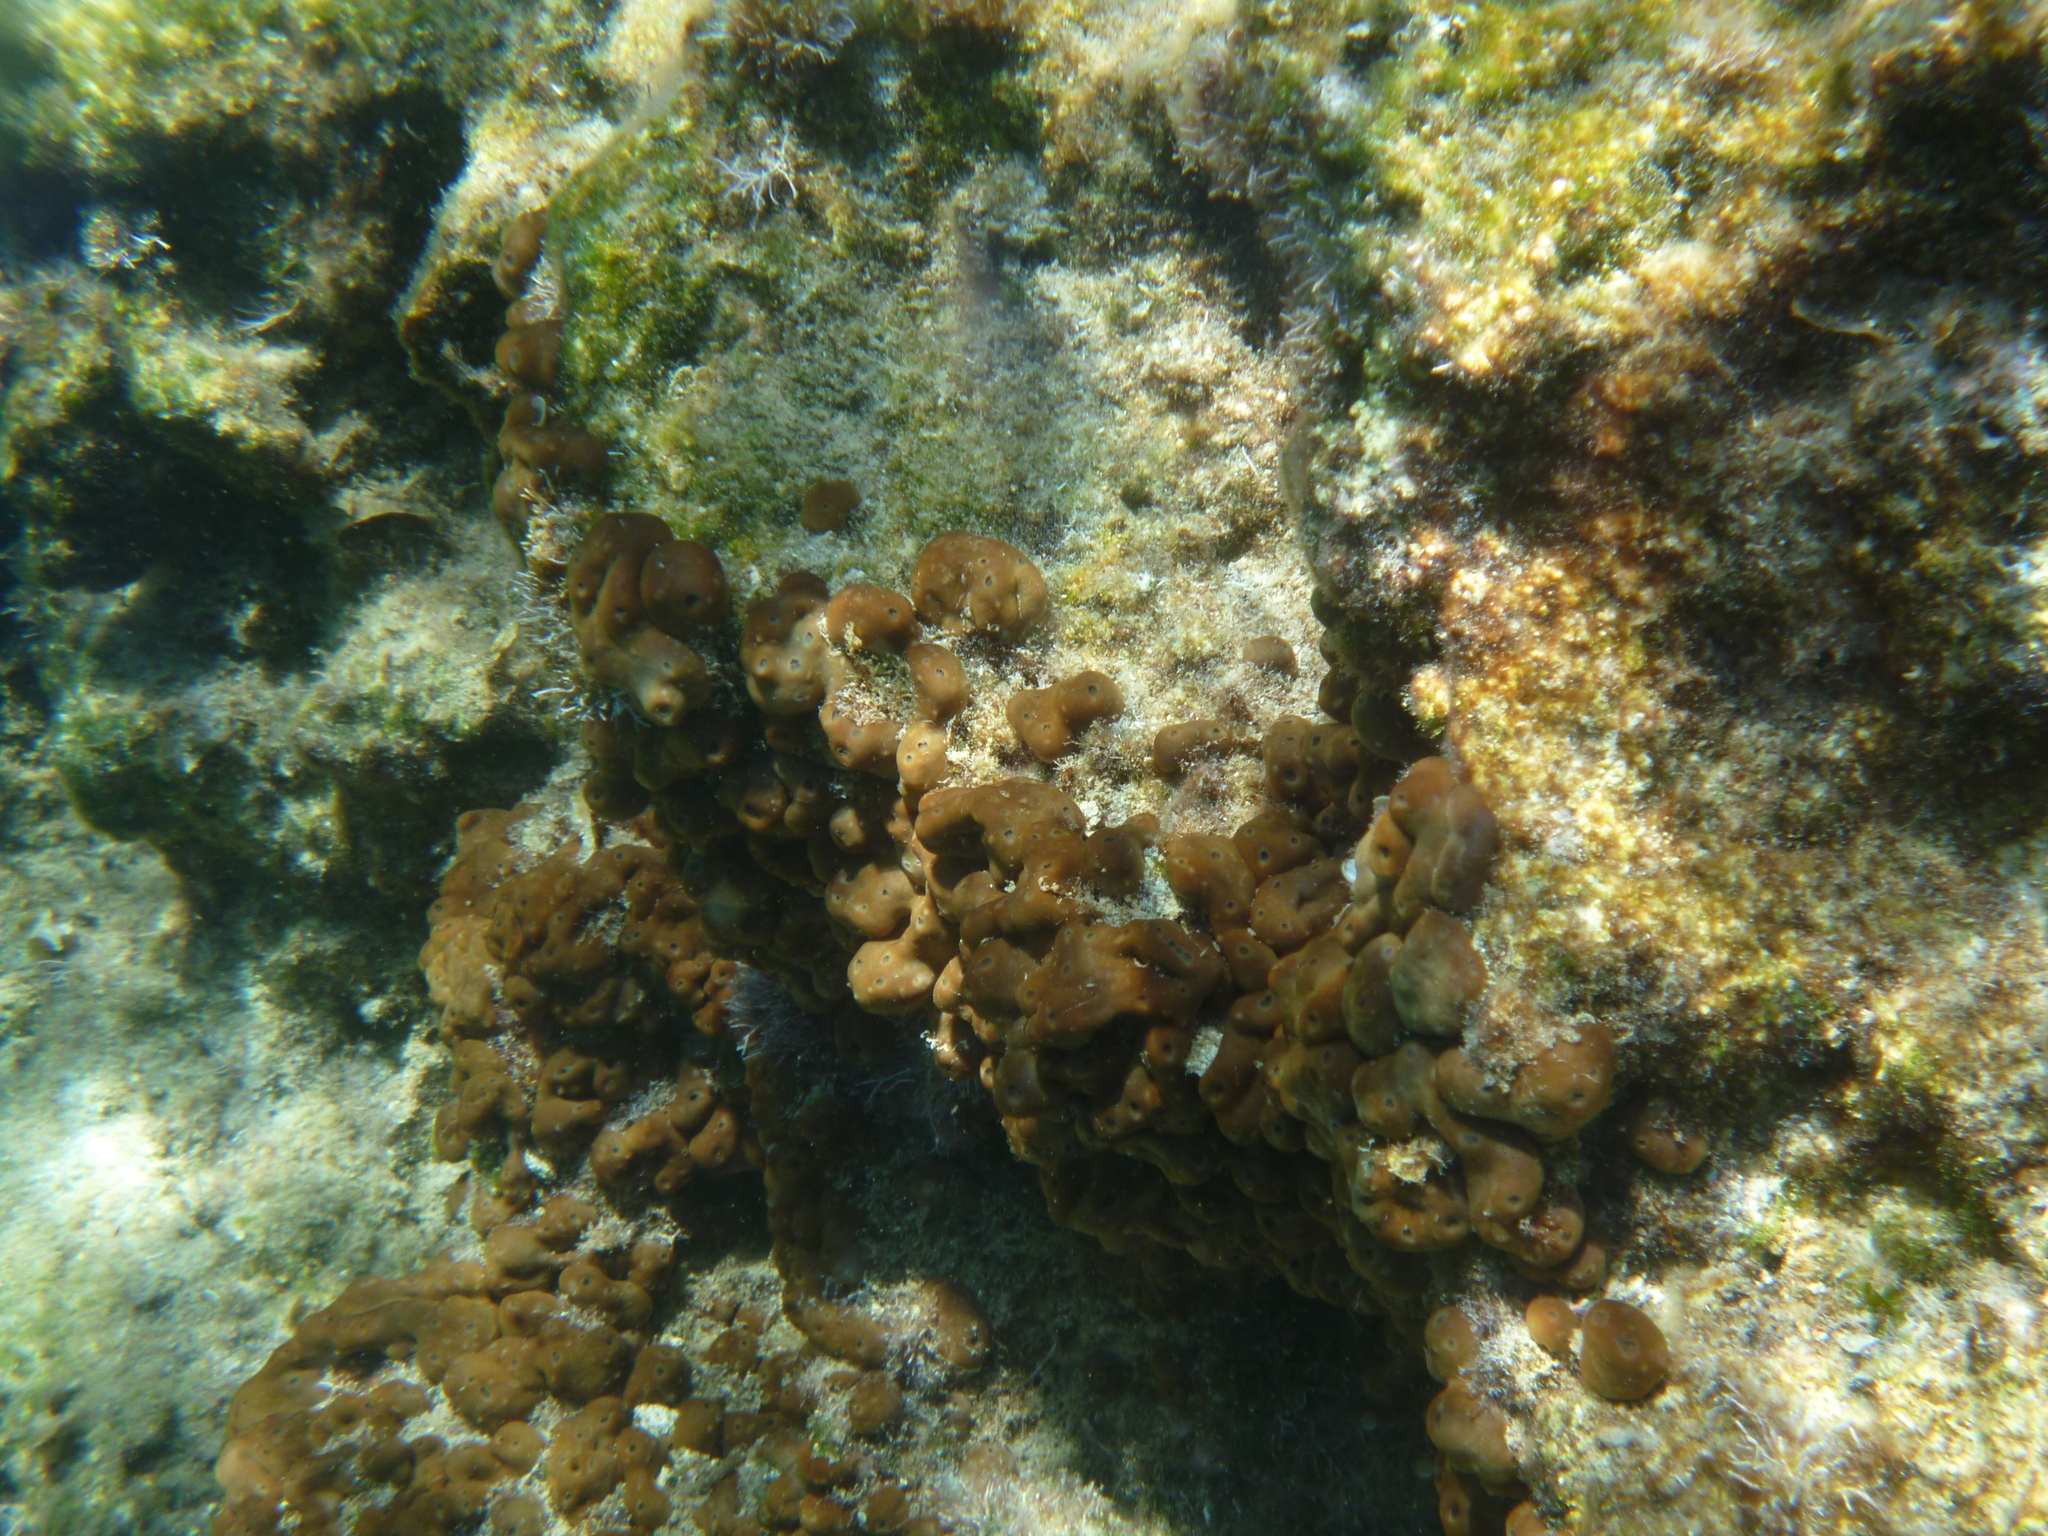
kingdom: Animalia
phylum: Porifera
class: Demospongiae
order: Chondrillida
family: Chondrillidae
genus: Chondrilla
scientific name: Chondrilla nucula
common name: Chicken liver sponge
